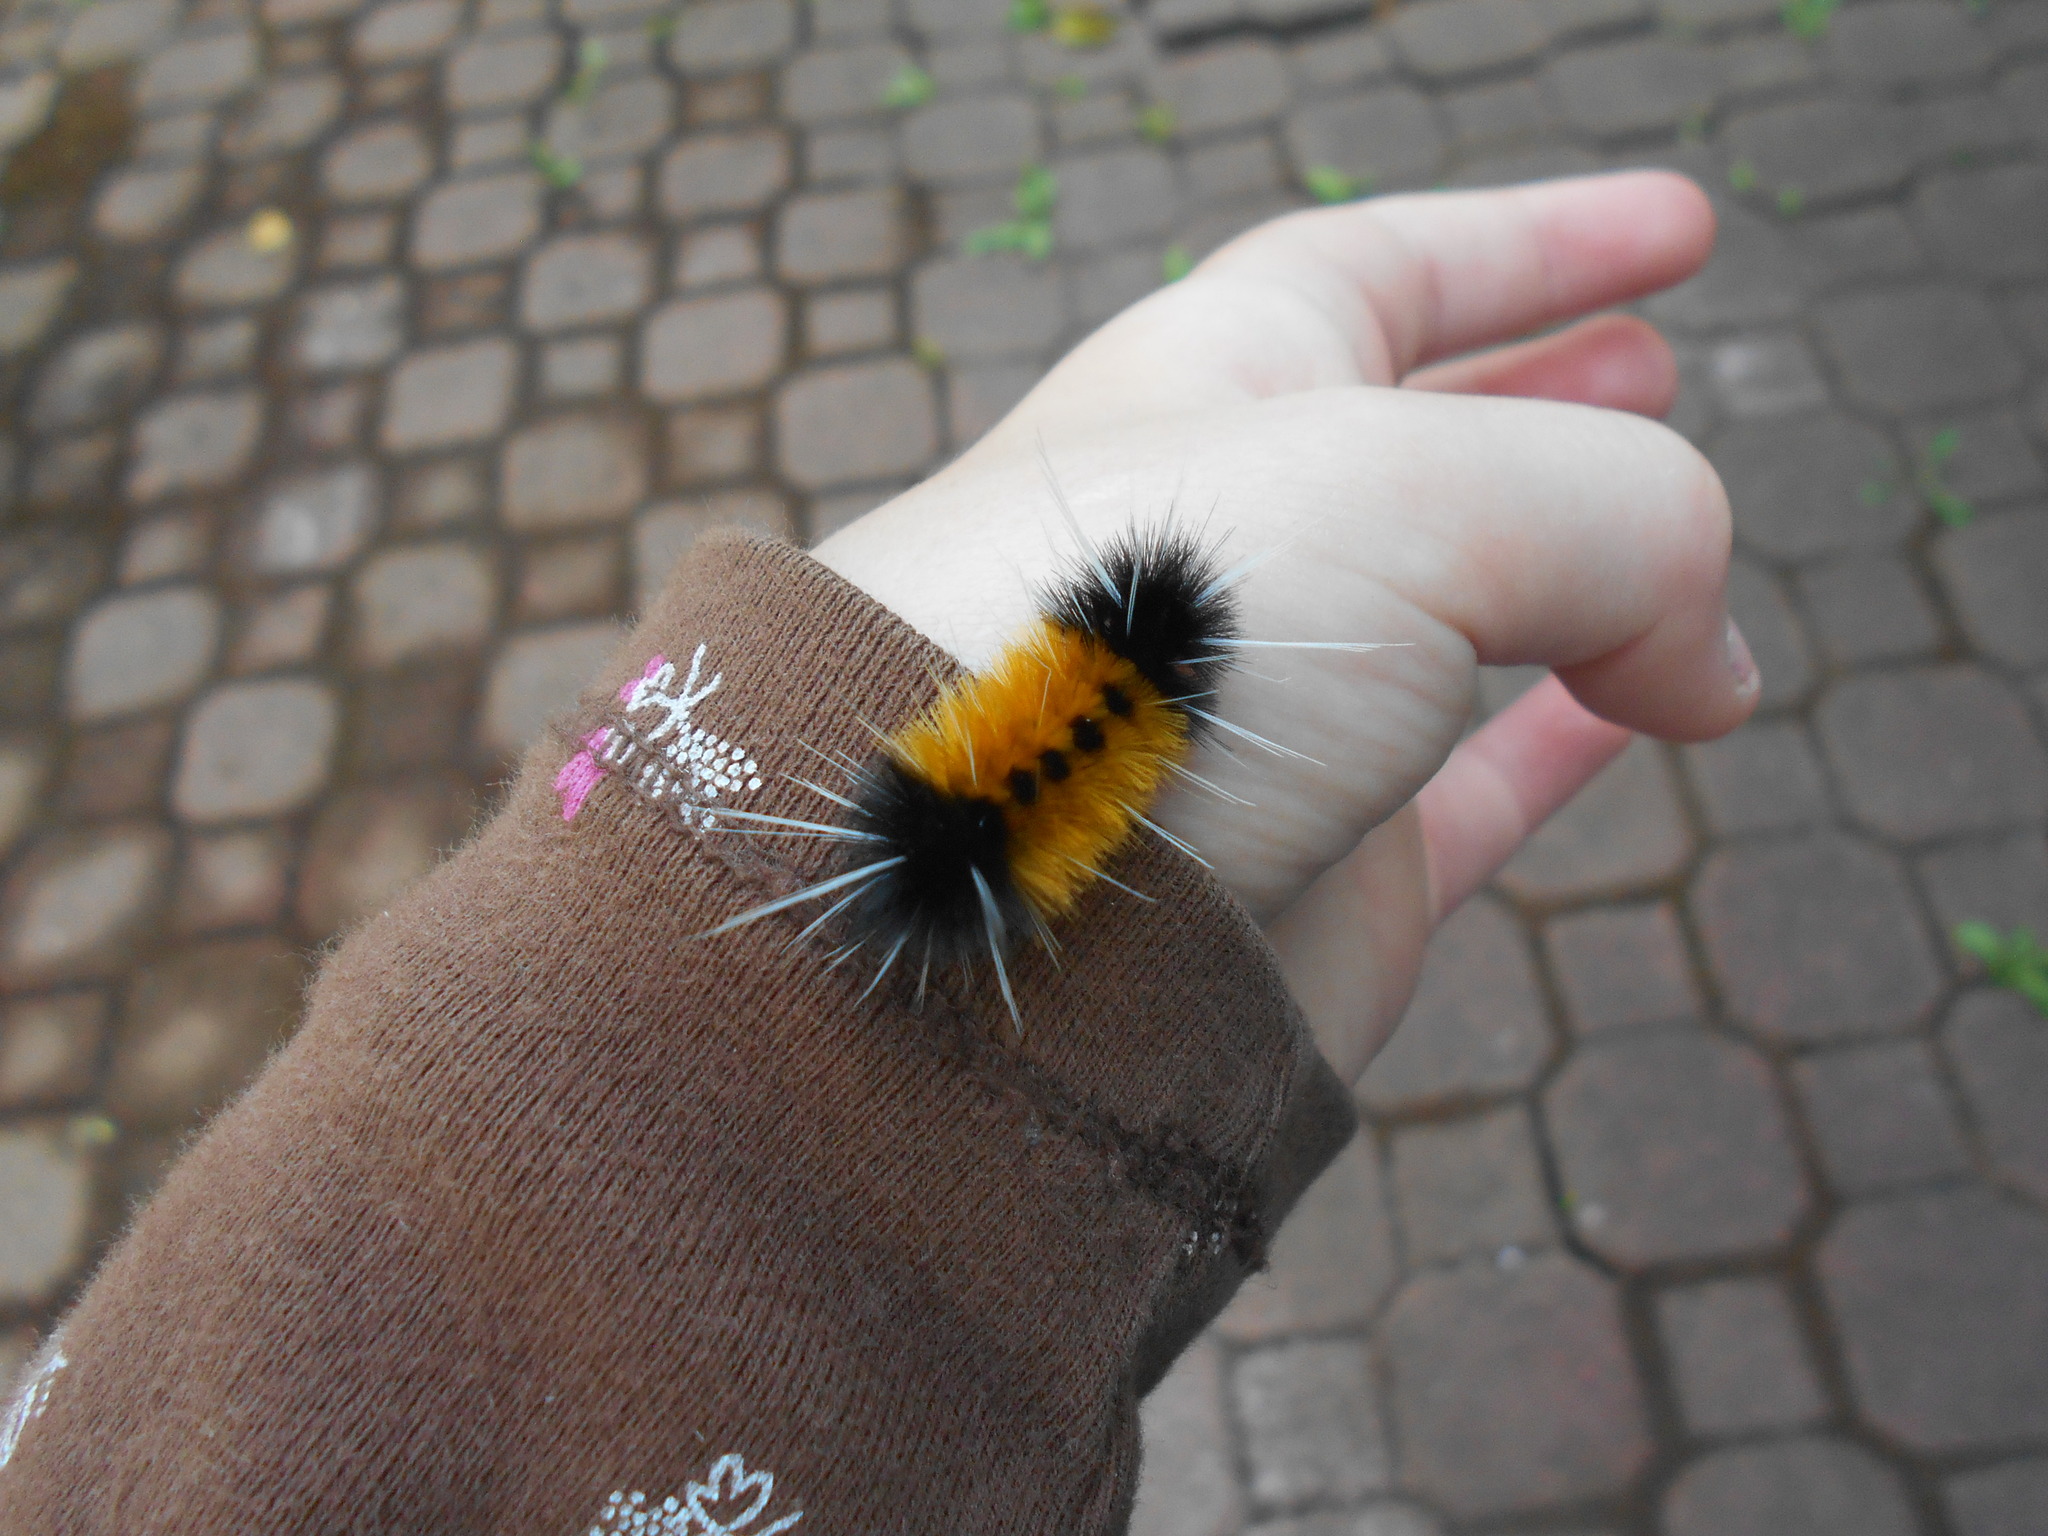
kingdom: Animalia
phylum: Arthropoda
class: Insecta
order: Lepidoptera
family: Erebidae
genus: Lophocampa
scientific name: Lophocampa maculata
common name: Spotted tussock moth
